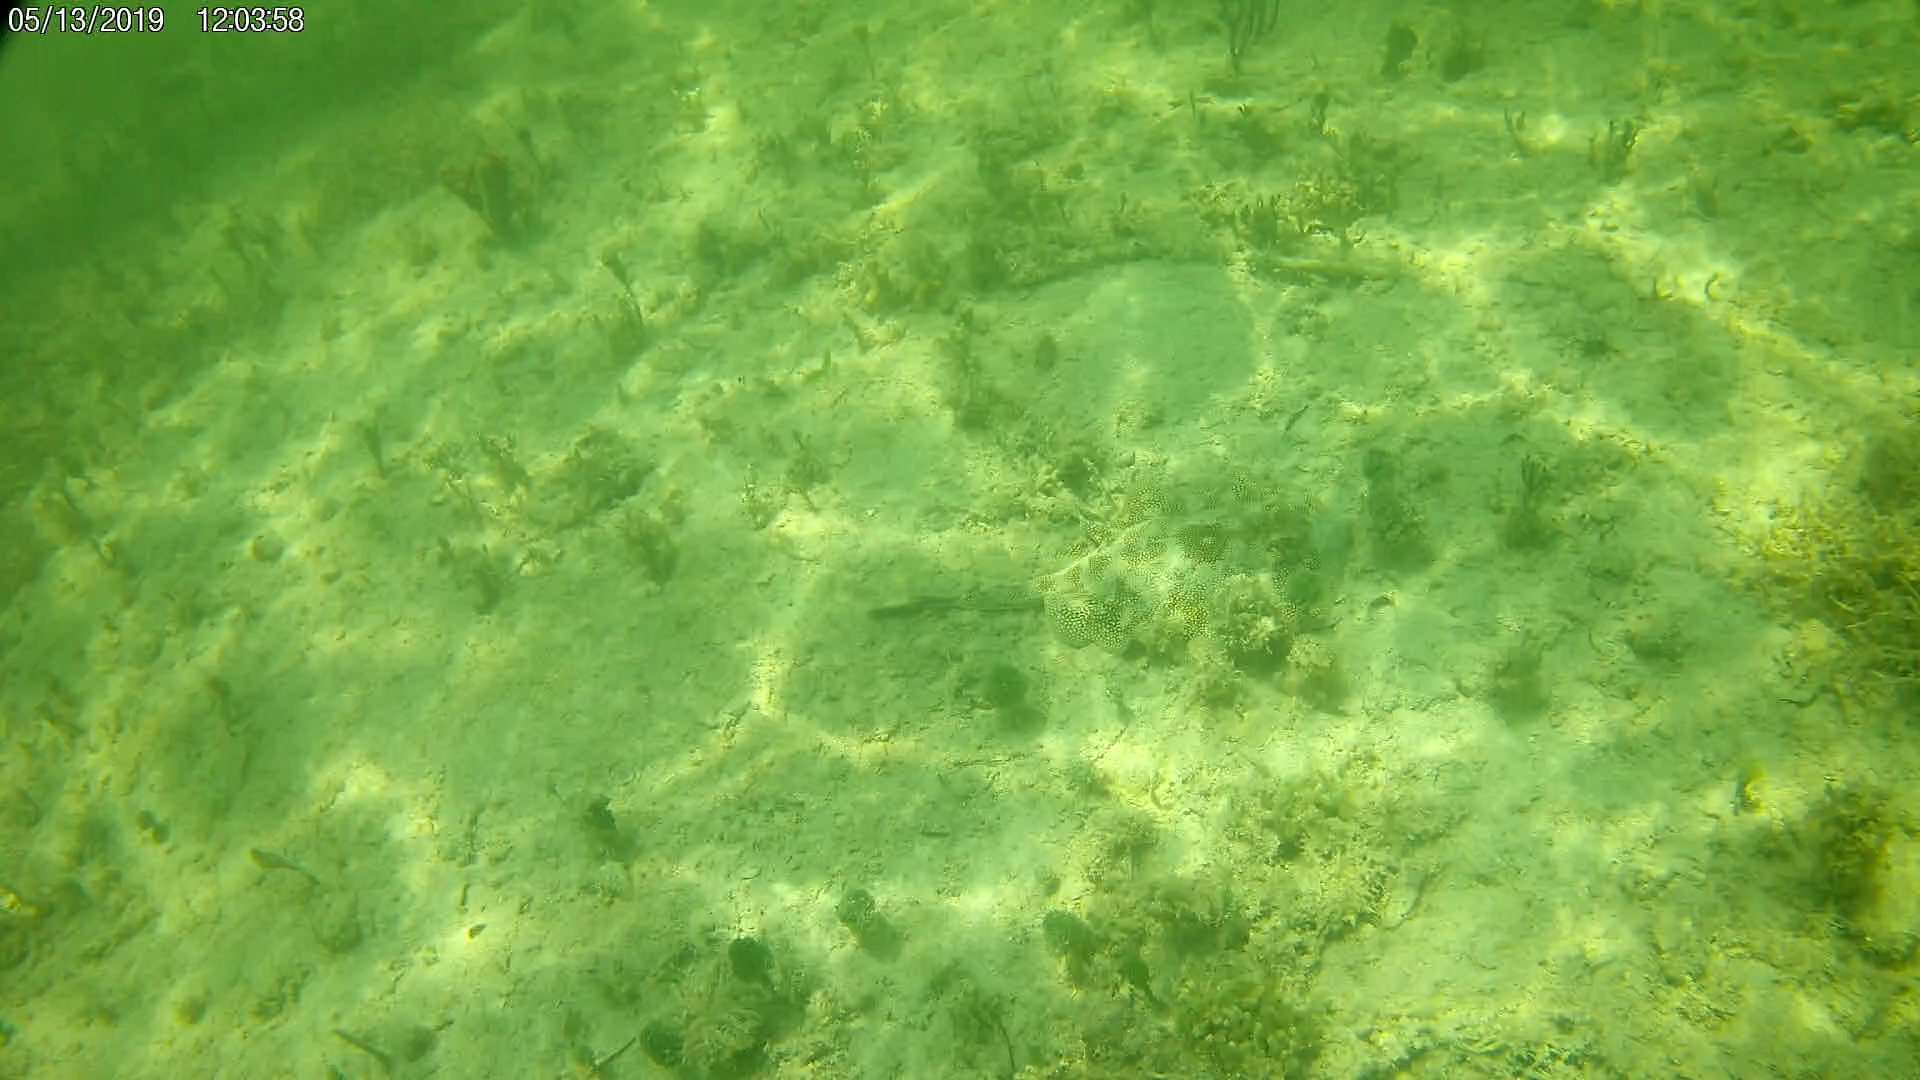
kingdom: Animalia
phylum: Chordata
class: Elasmobranchii
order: Myliobatiformes
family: Urotrygonidae
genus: Urobatis
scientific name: Urobatis jamaicensis
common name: Yellow stingray
